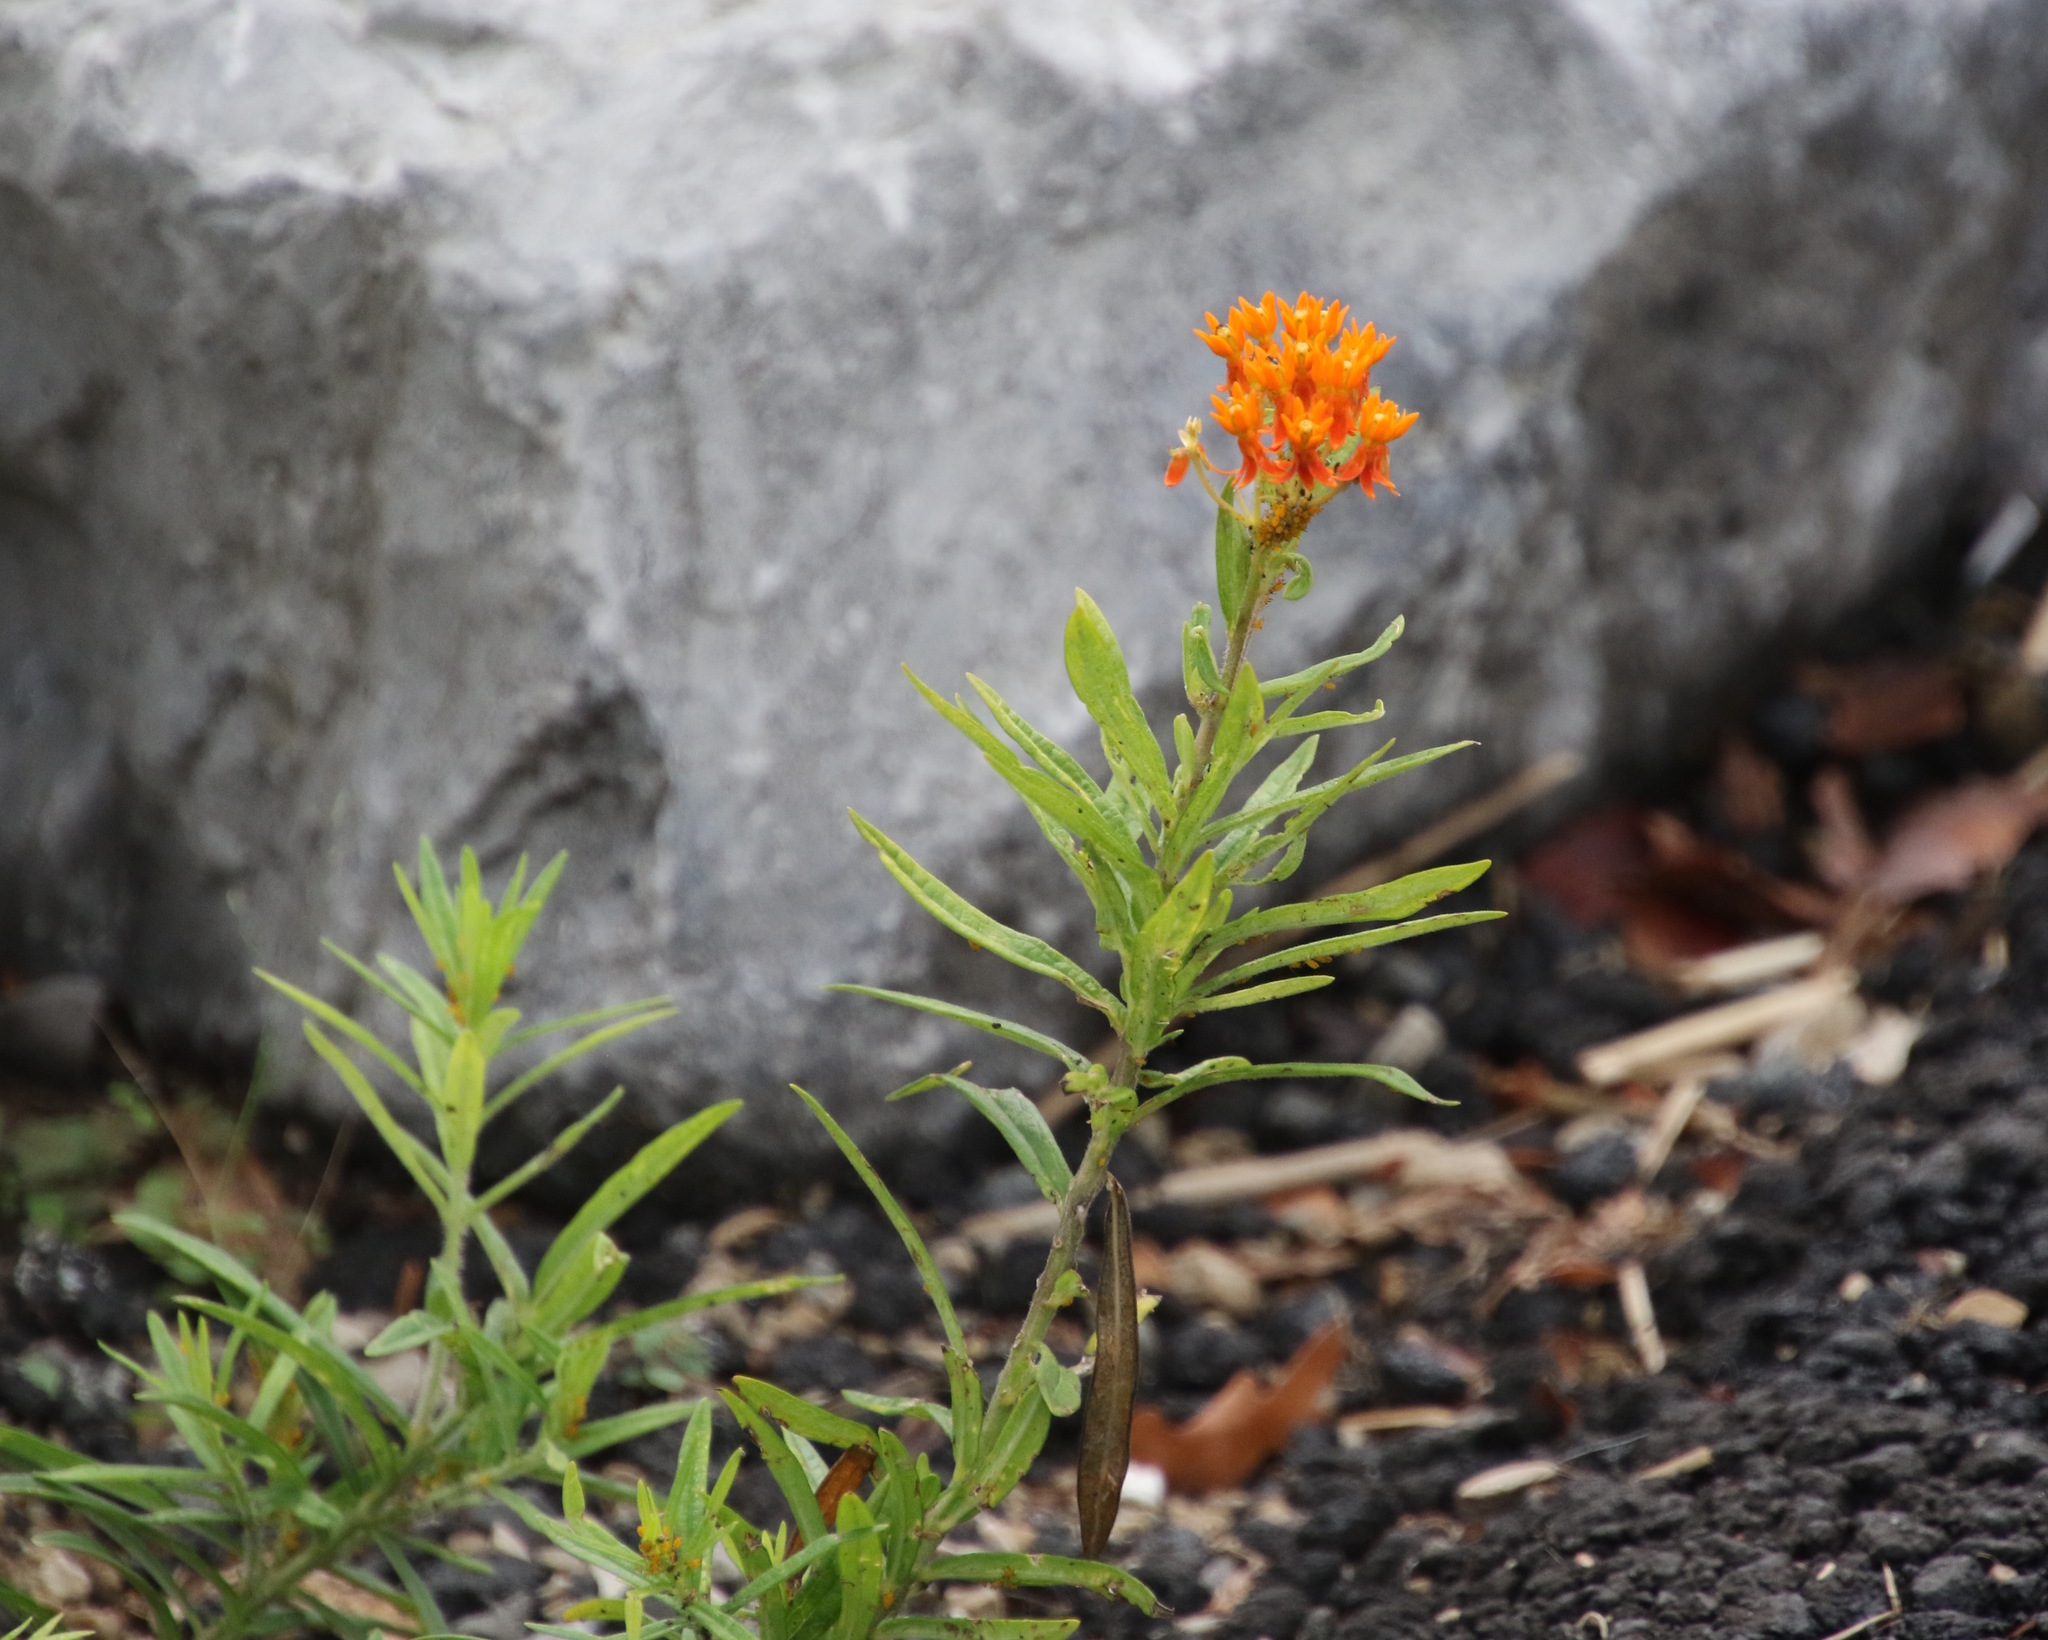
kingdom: Plantae
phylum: Tracheophyta
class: Magnoliopsida
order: Gentianales
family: Apocynaceae
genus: Asclepias
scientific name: Asclepias tuberosa
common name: Butterfly milkweed
